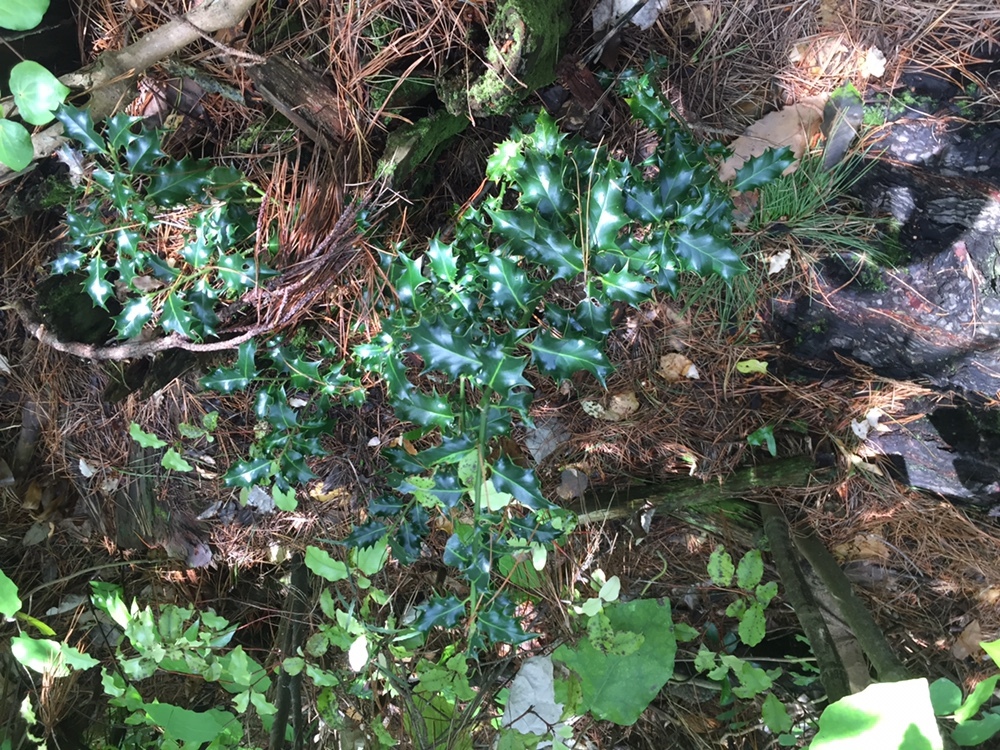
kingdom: Plantae
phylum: Tracheophyta
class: Magnoliopsida
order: Aquifoliales
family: Aquifoliaceae
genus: Ilex
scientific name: Ilex aquifolium
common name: English holly
